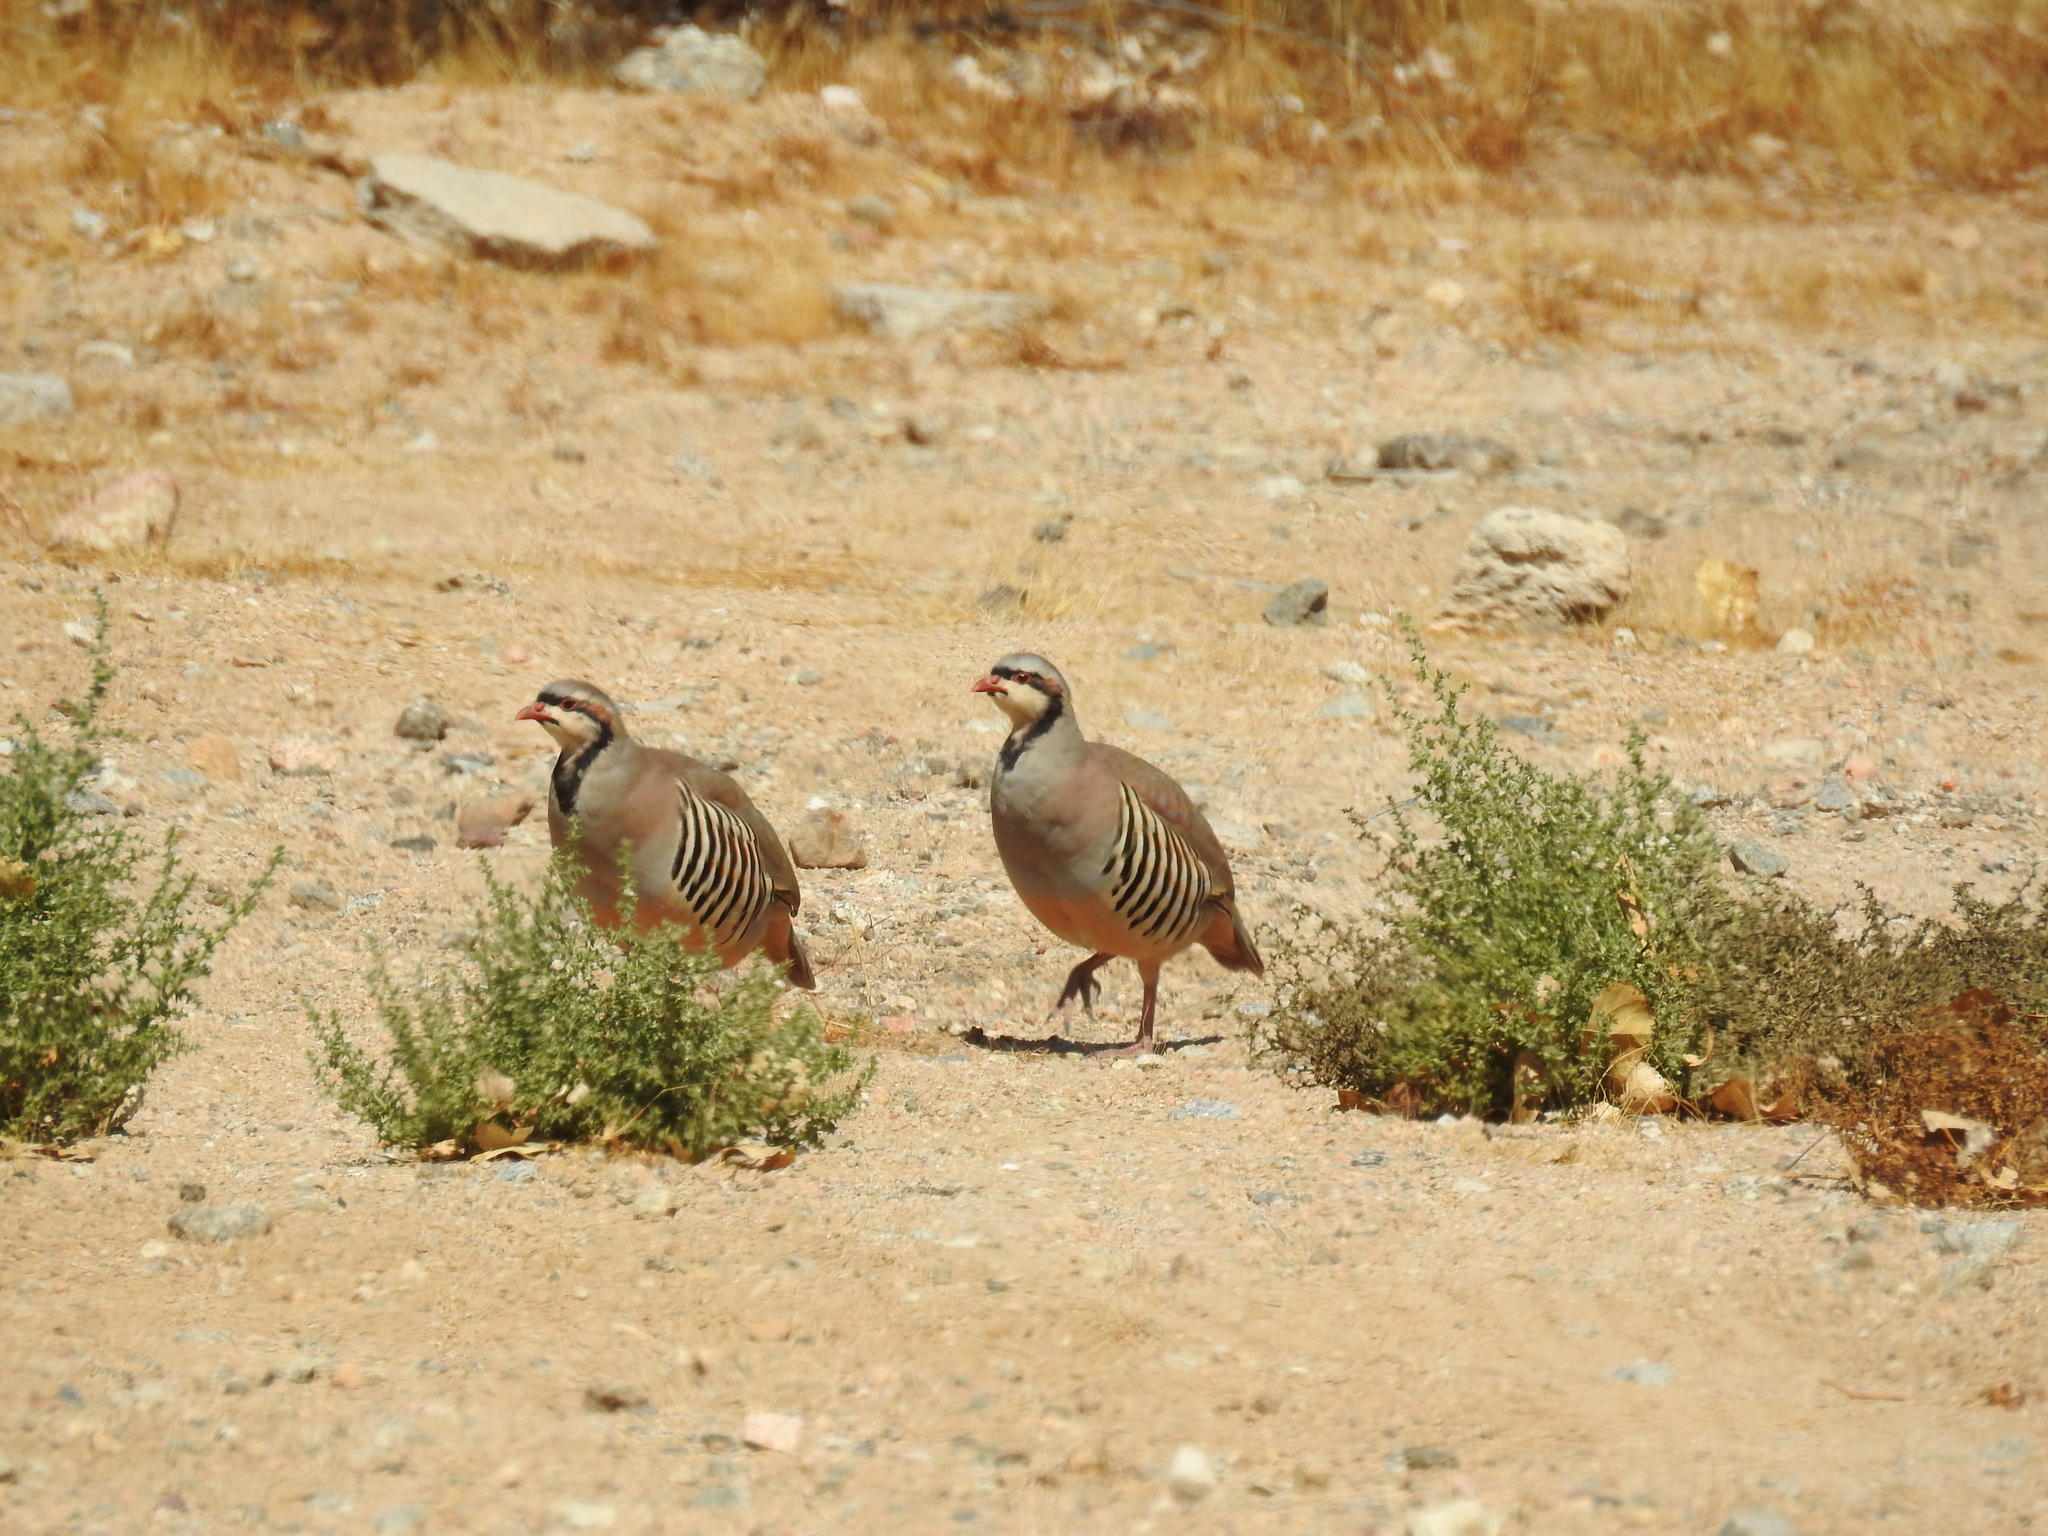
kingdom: Animalia
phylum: Chordata
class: Aves
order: Galliformes
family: Phasianidae
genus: Alectoris
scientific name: Alectoris chukar
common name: Chukar
